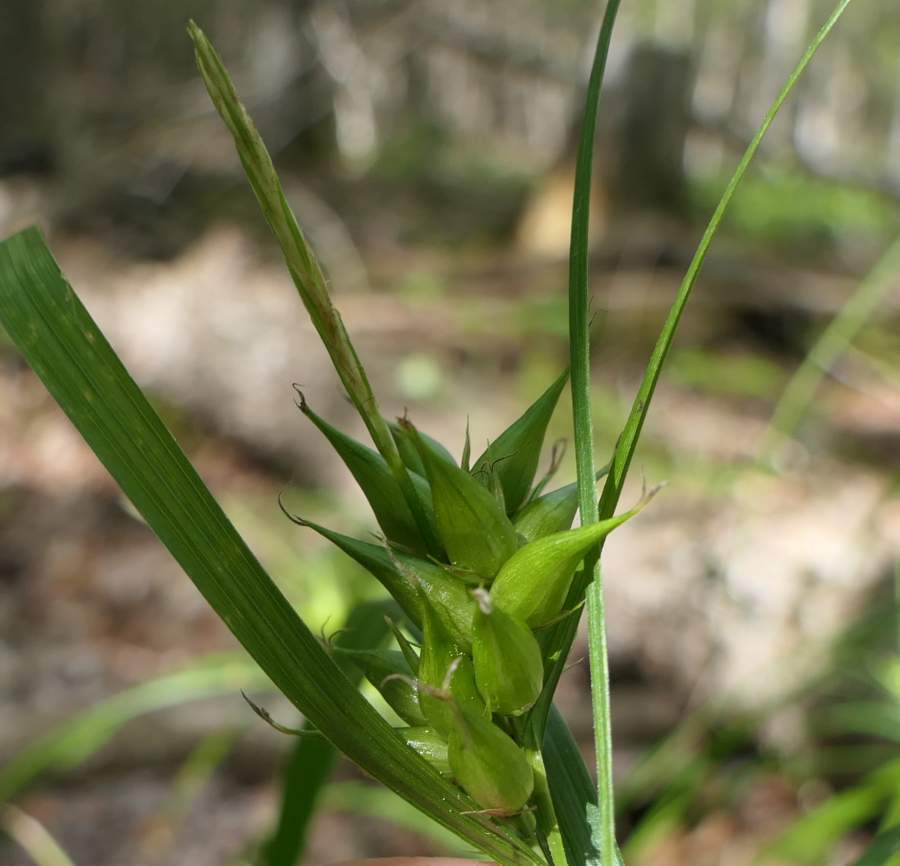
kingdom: Plantae
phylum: Tracheophyta
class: Liliopsida
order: Poales
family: Cyperaceae
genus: Carex
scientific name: Carex intumescens
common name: Greater bladder sedge
